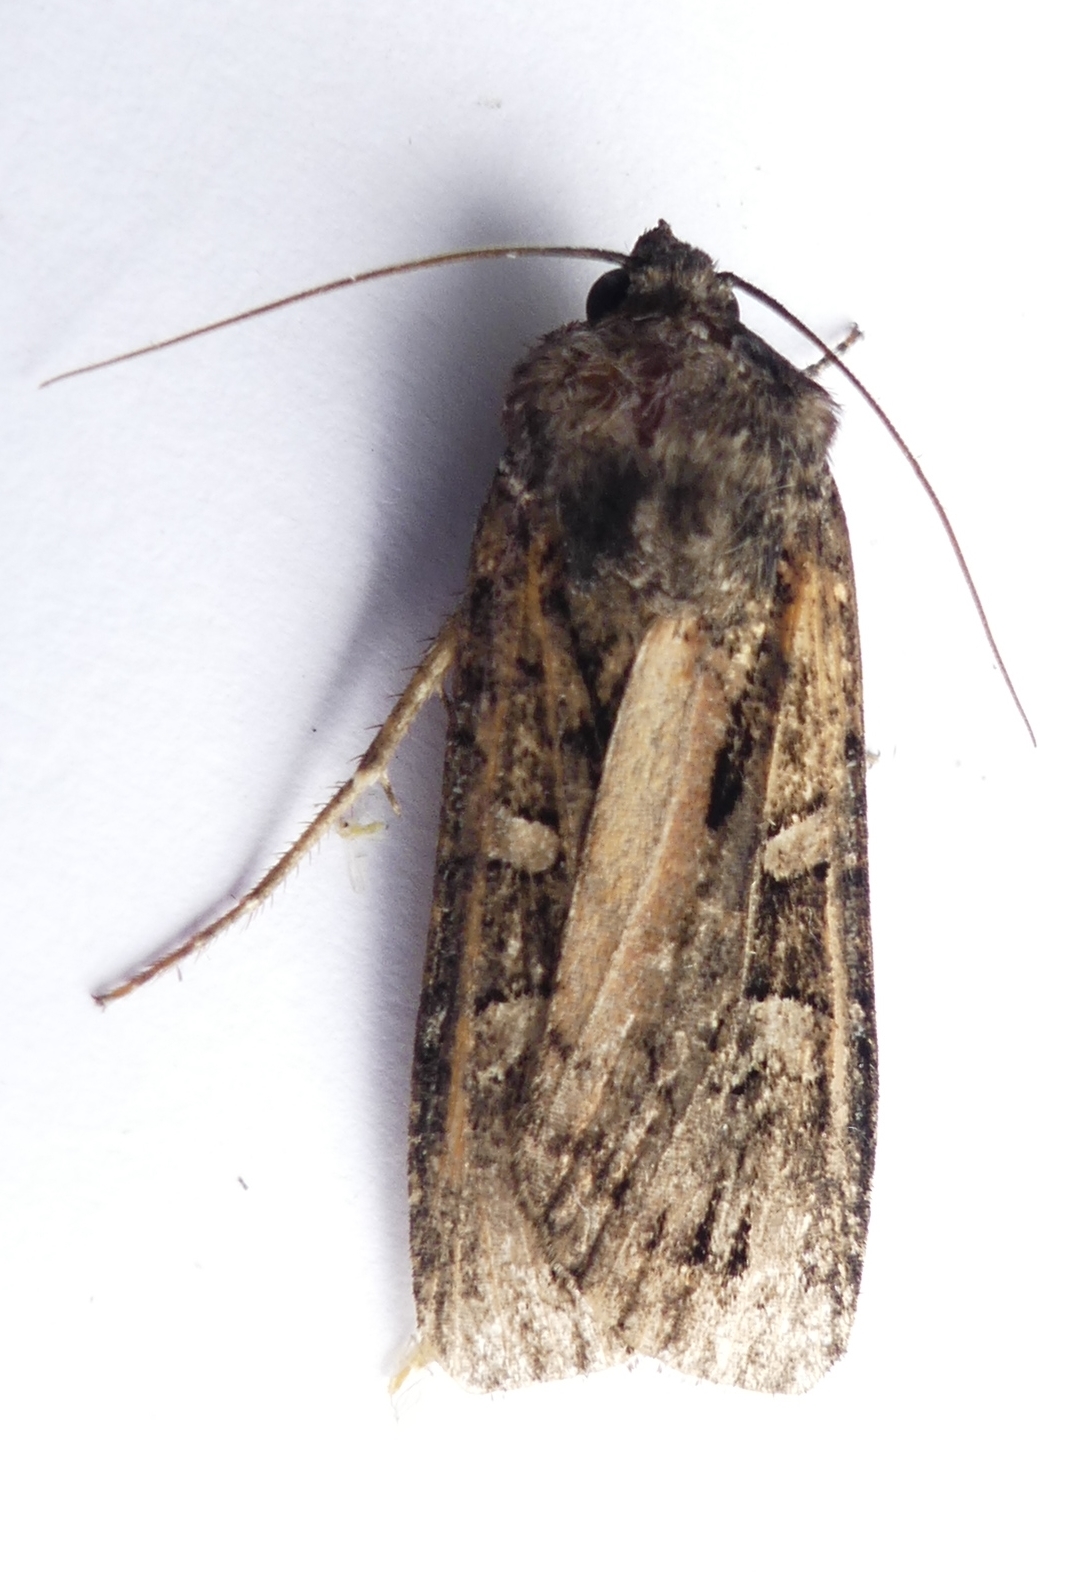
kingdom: Animalia
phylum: Arthropoda
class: Insecta
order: Lepidoptera
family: Noctuidae
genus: Actebia
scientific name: Actebia fennica
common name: Eversmann's rustic
